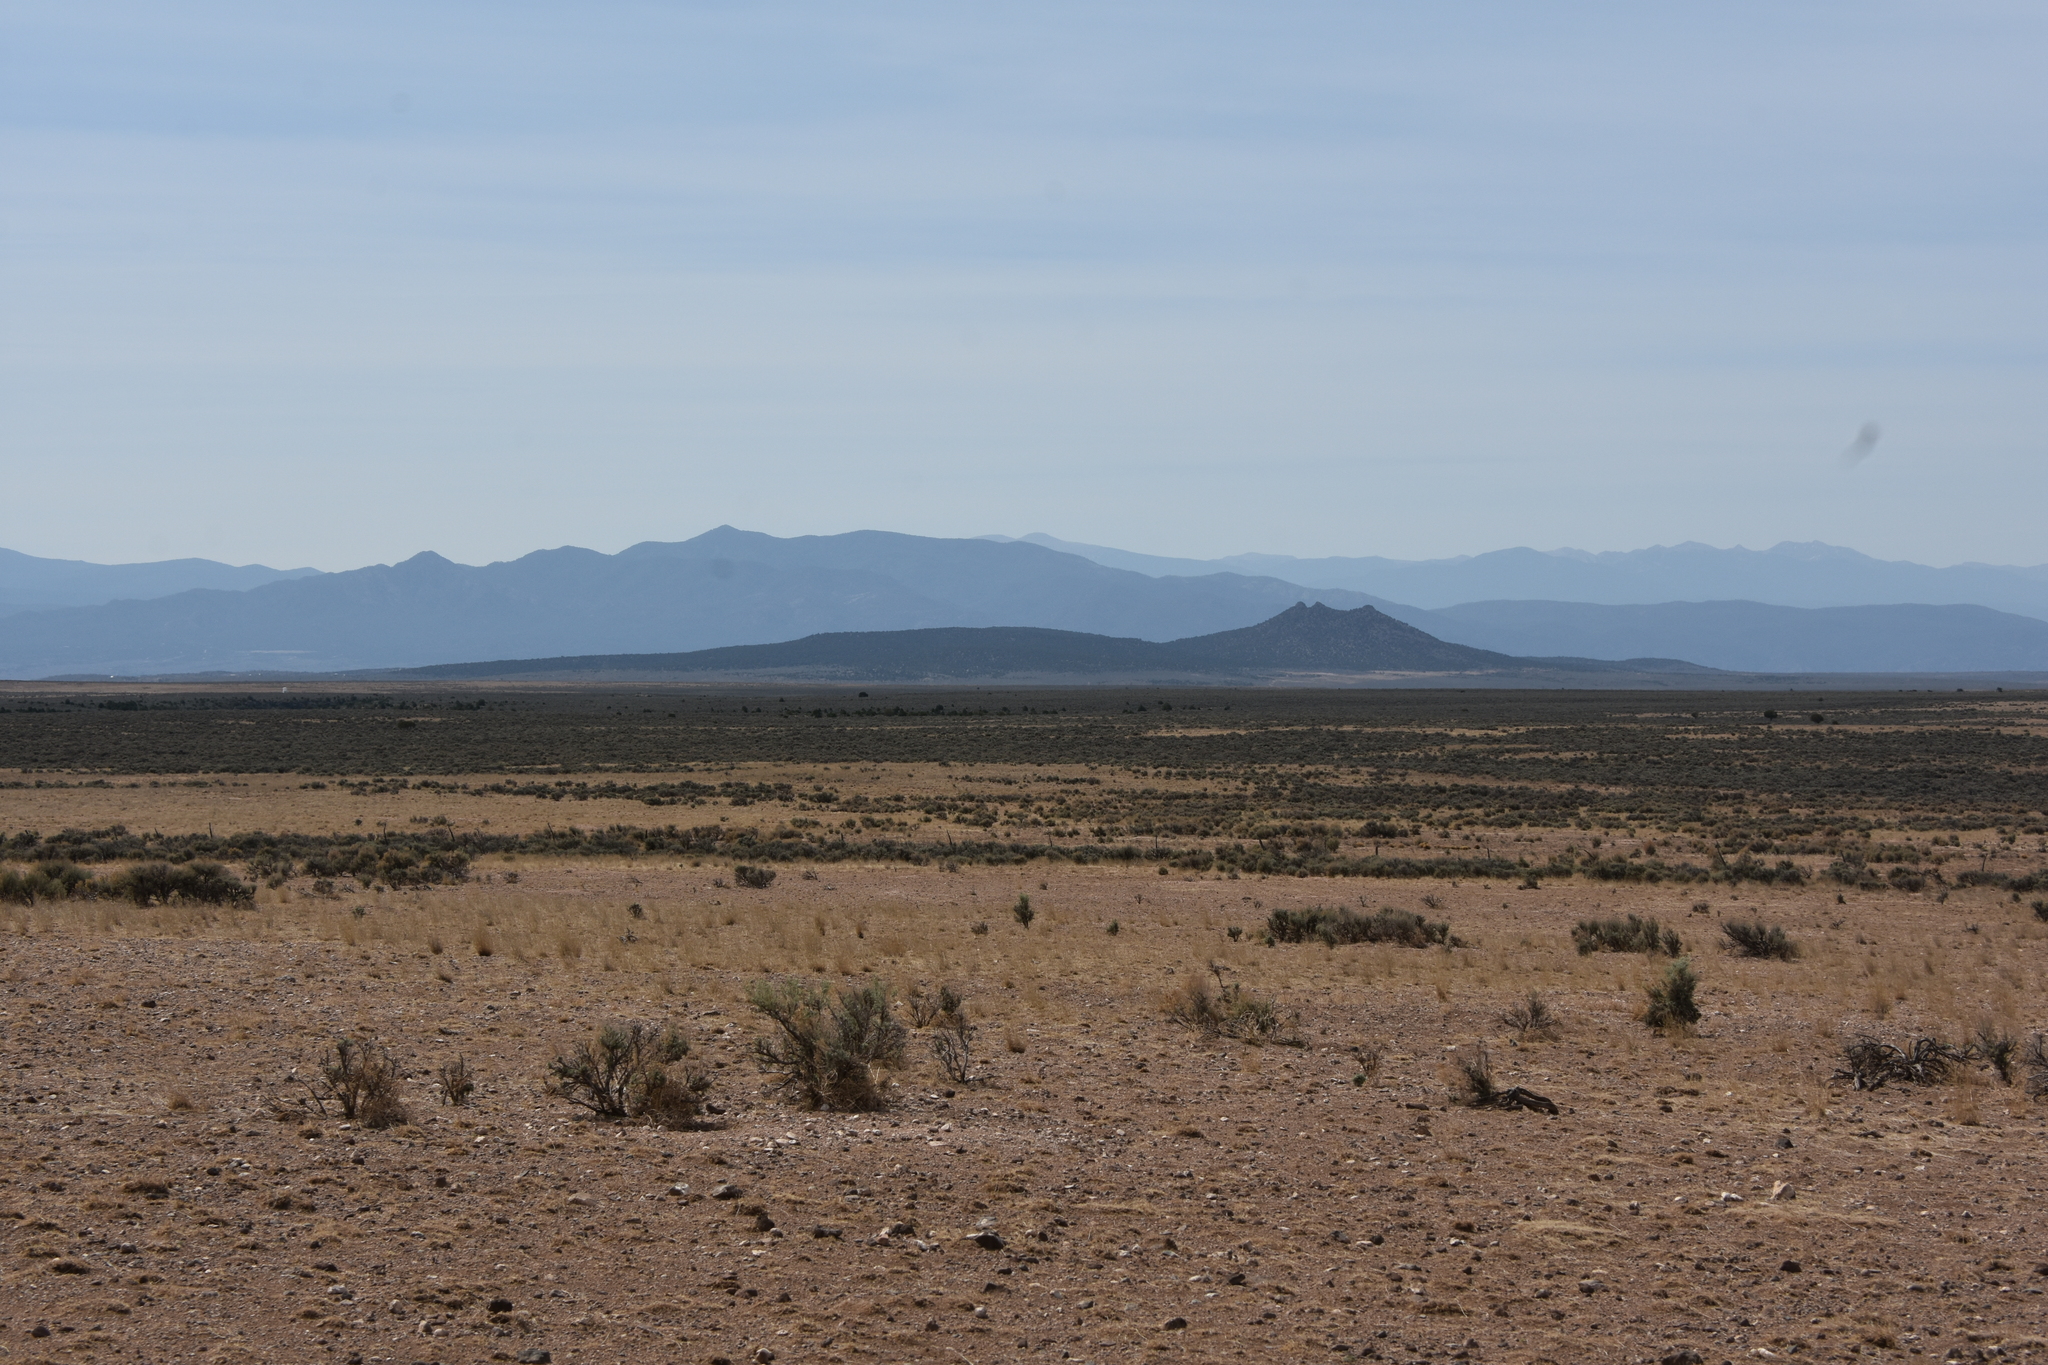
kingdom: Plantae
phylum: Tracheophyta
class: Magnoliopsida
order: Asterales
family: Asteraceae
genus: Artemisia
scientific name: Artemisia tridentata
